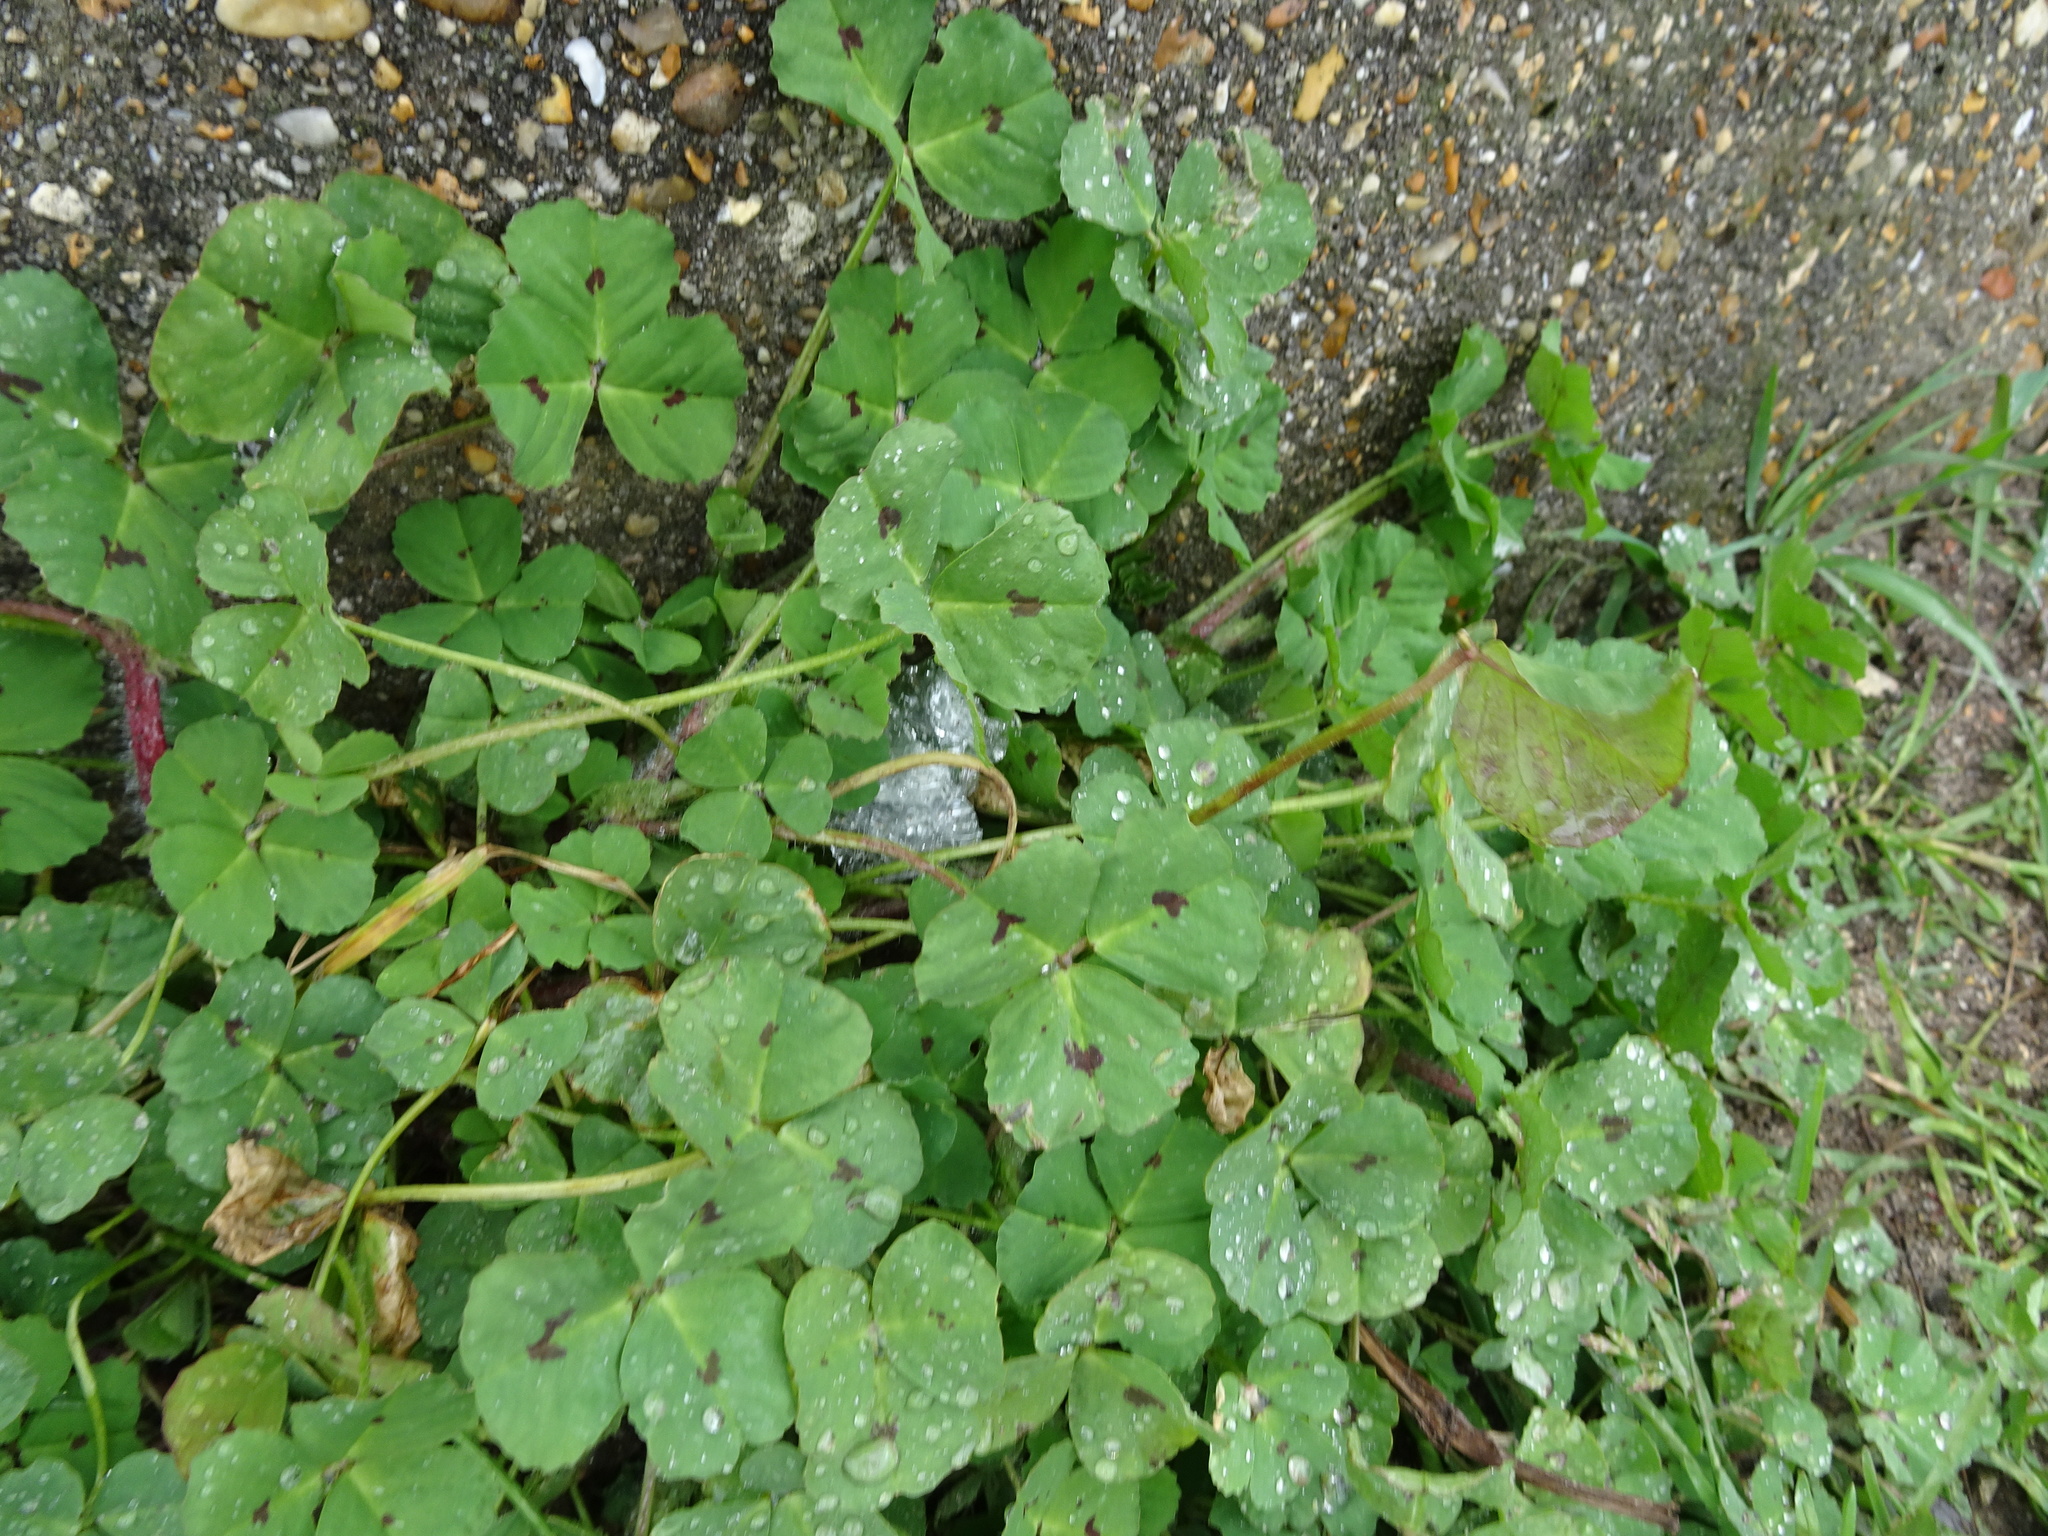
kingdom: Plantae
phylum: Tracheophyta
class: Magnoliopsida
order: Fabales
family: Fabaceae
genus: Medicago
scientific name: Medicago arabica
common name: Spotted medick
